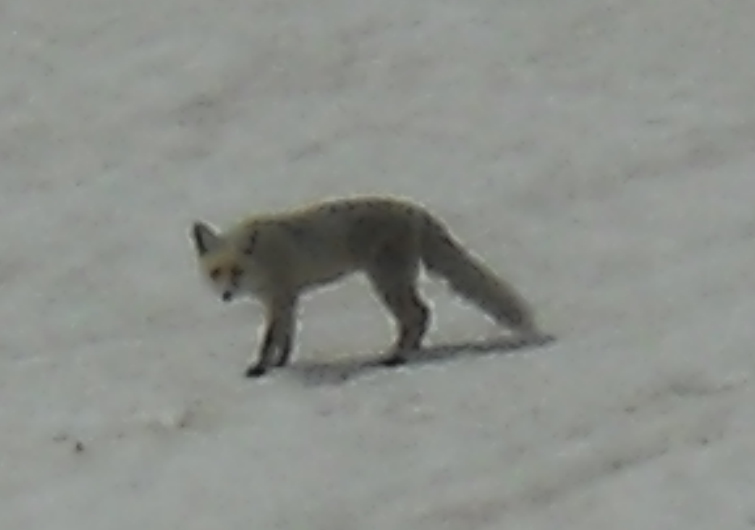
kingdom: Animalia
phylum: Chordata
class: Mammalia
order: Carnivora
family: Canidae
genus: Vulpes
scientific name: Vulpes vulpes
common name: Red fox
